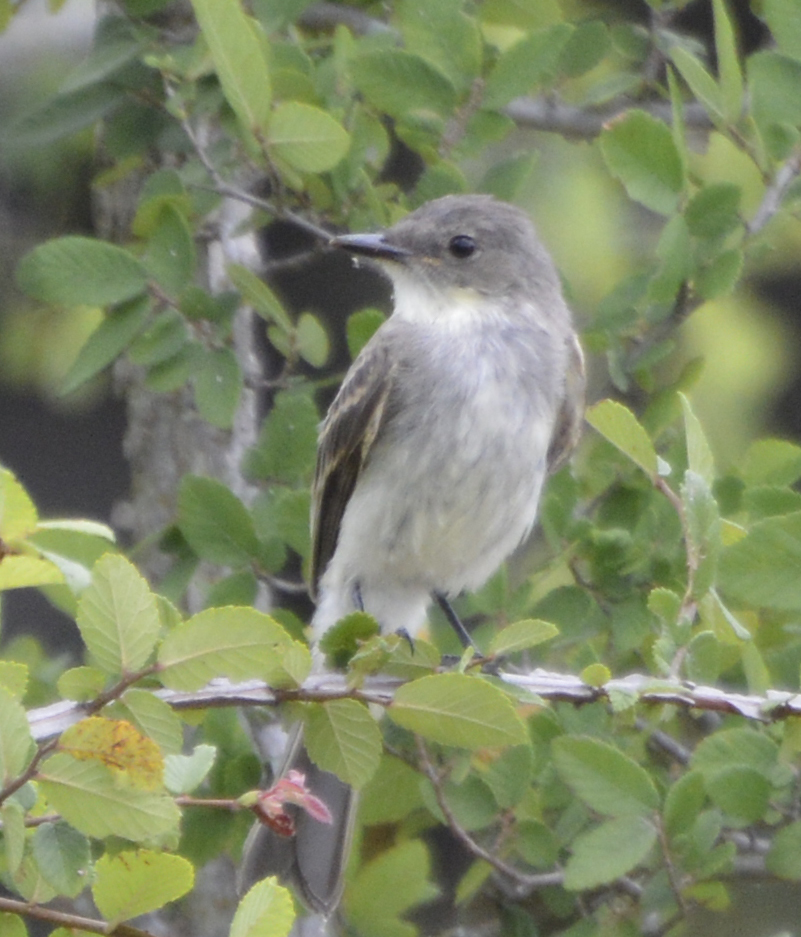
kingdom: Animalia
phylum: Chordata
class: Aves
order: Passeriformes
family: Tyrannidae
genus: Sayornis
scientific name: Sayornis phoebe
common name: Eastern phoebe
